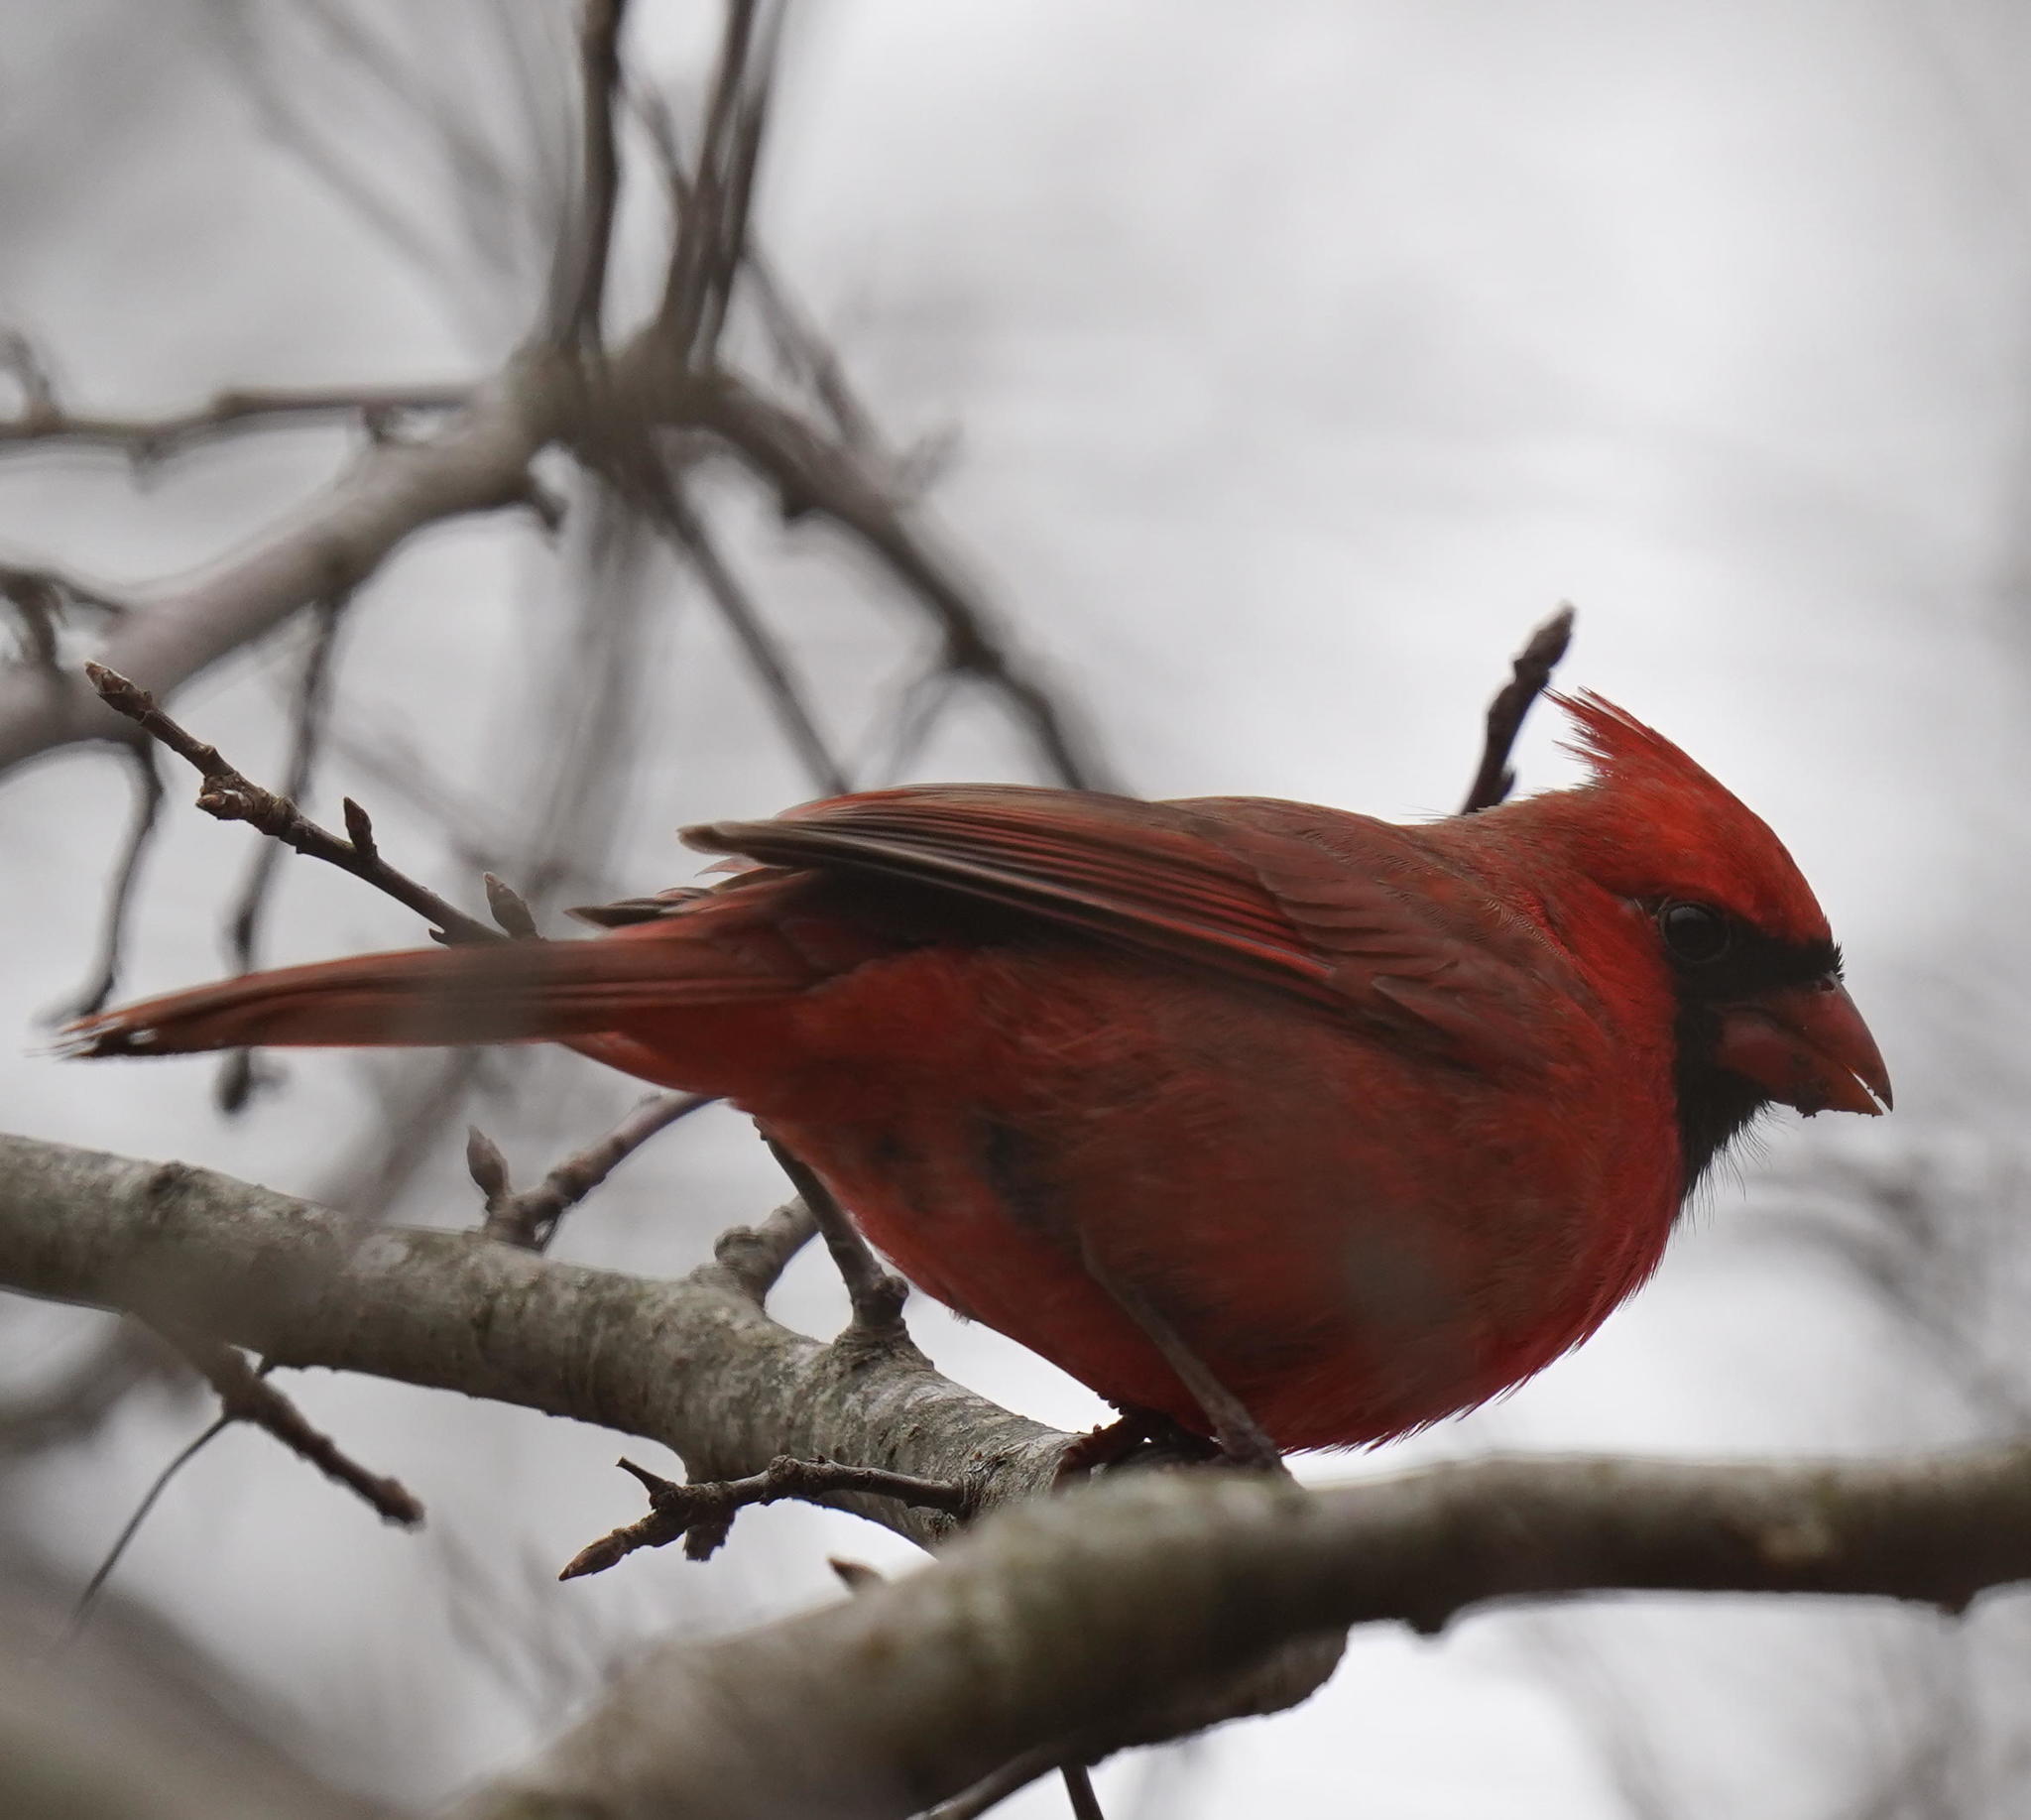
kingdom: Animalia
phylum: Chordata
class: Aves
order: Passeriformes
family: Cardinalidae
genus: Cardinalis
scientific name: Cardinalis cardinalis
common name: Northern cardinal
